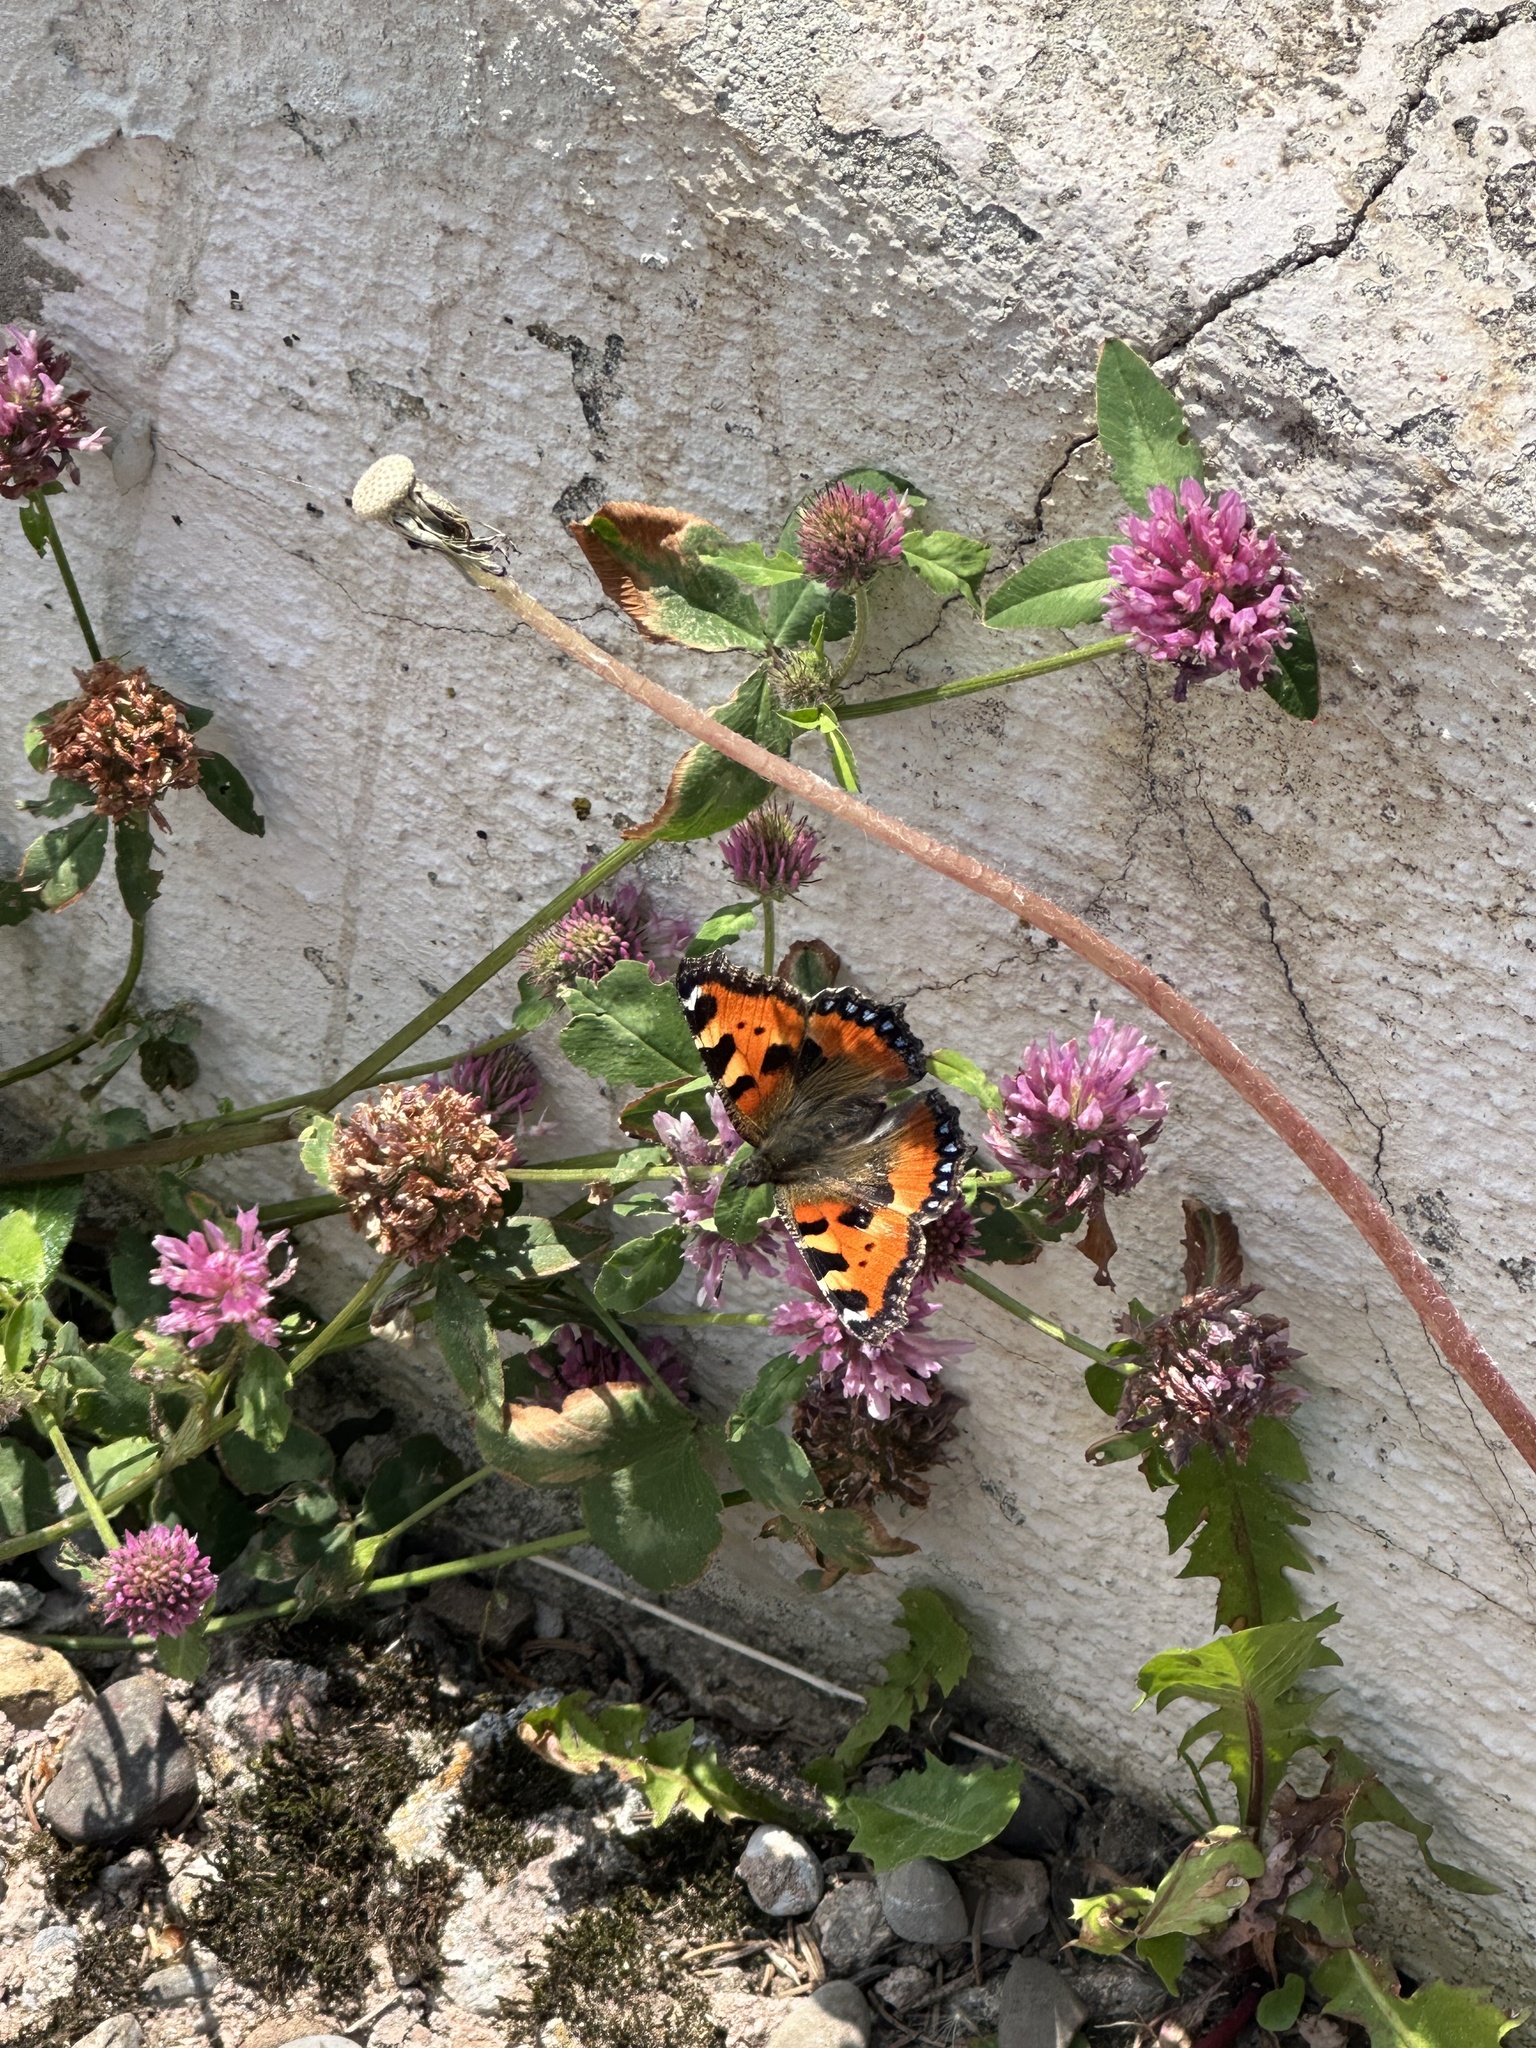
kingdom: Animalia
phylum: Arthropoda
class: Insecta
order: Lepidoptera
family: Nymphalidae
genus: Aglais
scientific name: Aglais urticae
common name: Small tortoiseshell
